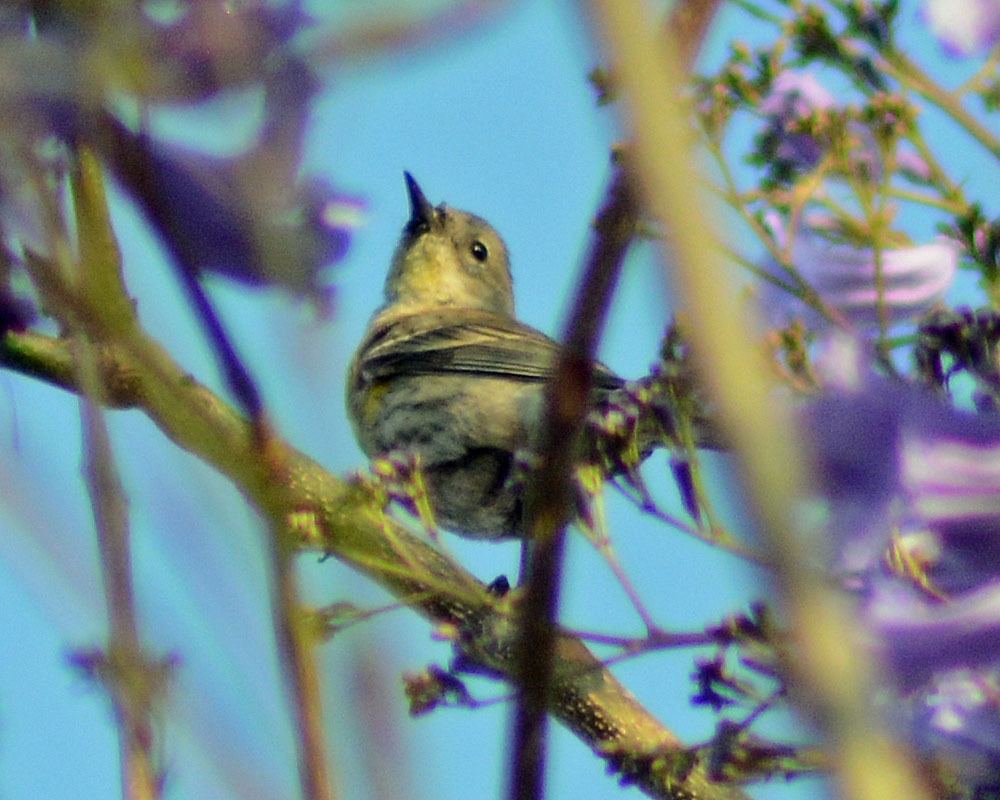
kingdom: Animalia
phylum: Chordata
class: Aves
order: Passeriformes
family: Parulidae
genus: Setophaga
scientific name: Setophaga coronata
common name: Myrtle warbler
